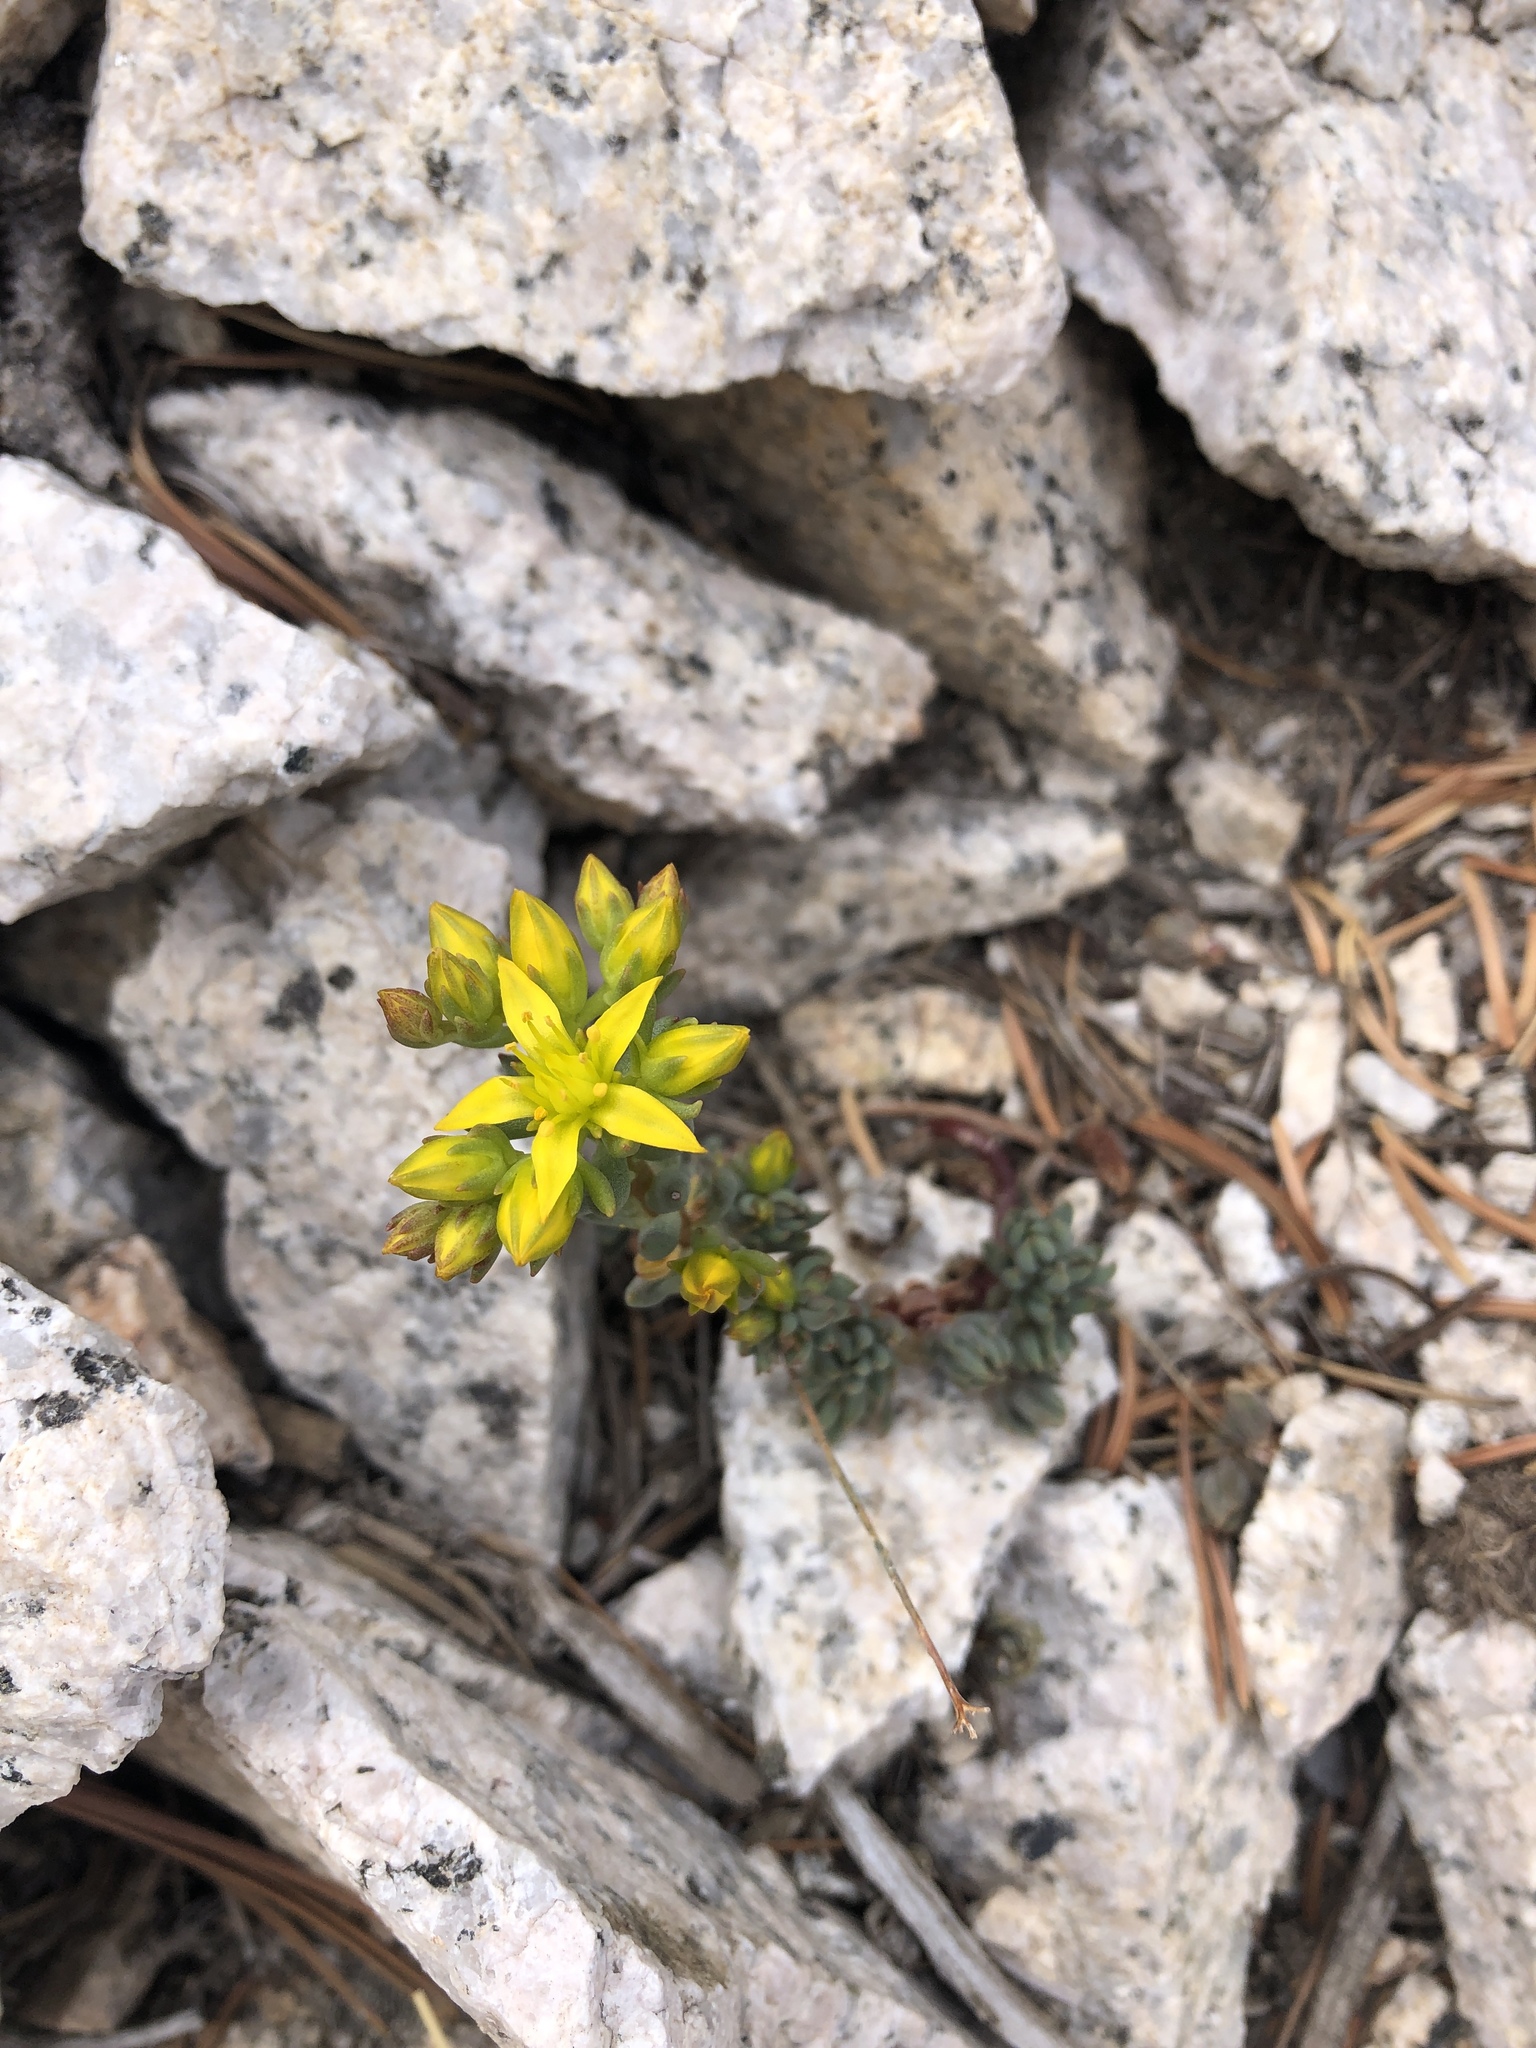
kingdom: Plantae
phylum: Tracheophyta
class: Magnoliopsida
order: Saxifragales
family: Crassulaceae
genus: Sedum
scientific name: Sedum lanceolatum
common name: Common stonecrop
